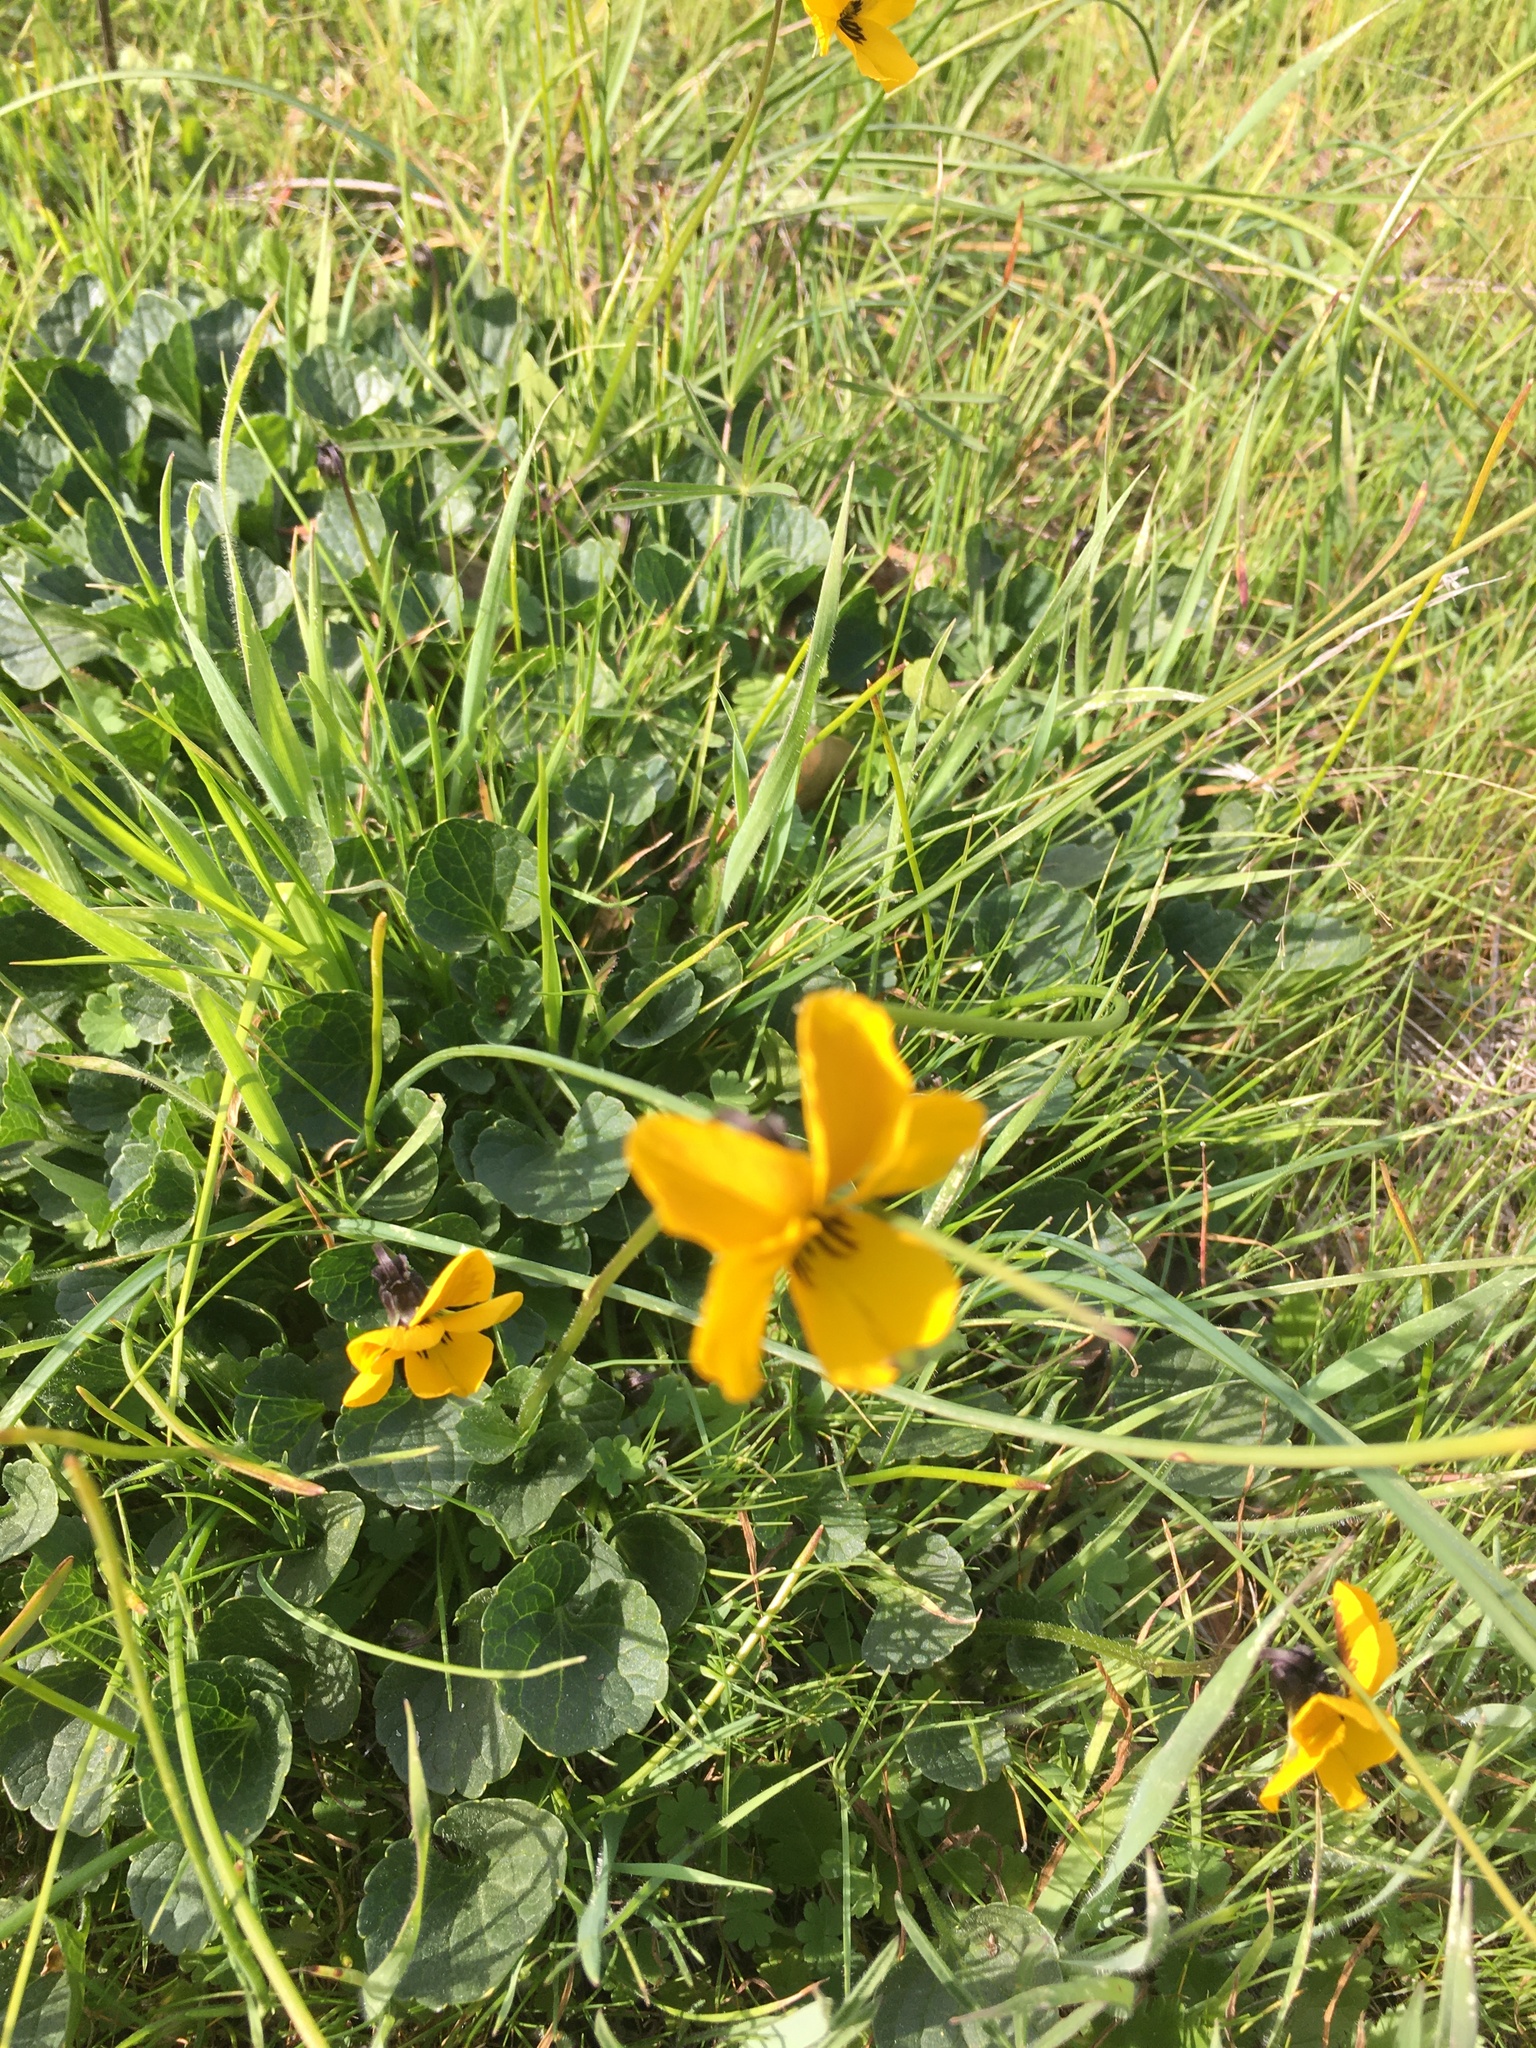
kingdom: Plantae
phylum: Tracheophyta
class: Magnoliopsida
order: Malpighiales
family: Violaceae
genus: Viola
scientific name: Viola pedunculata
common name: California golden violet
